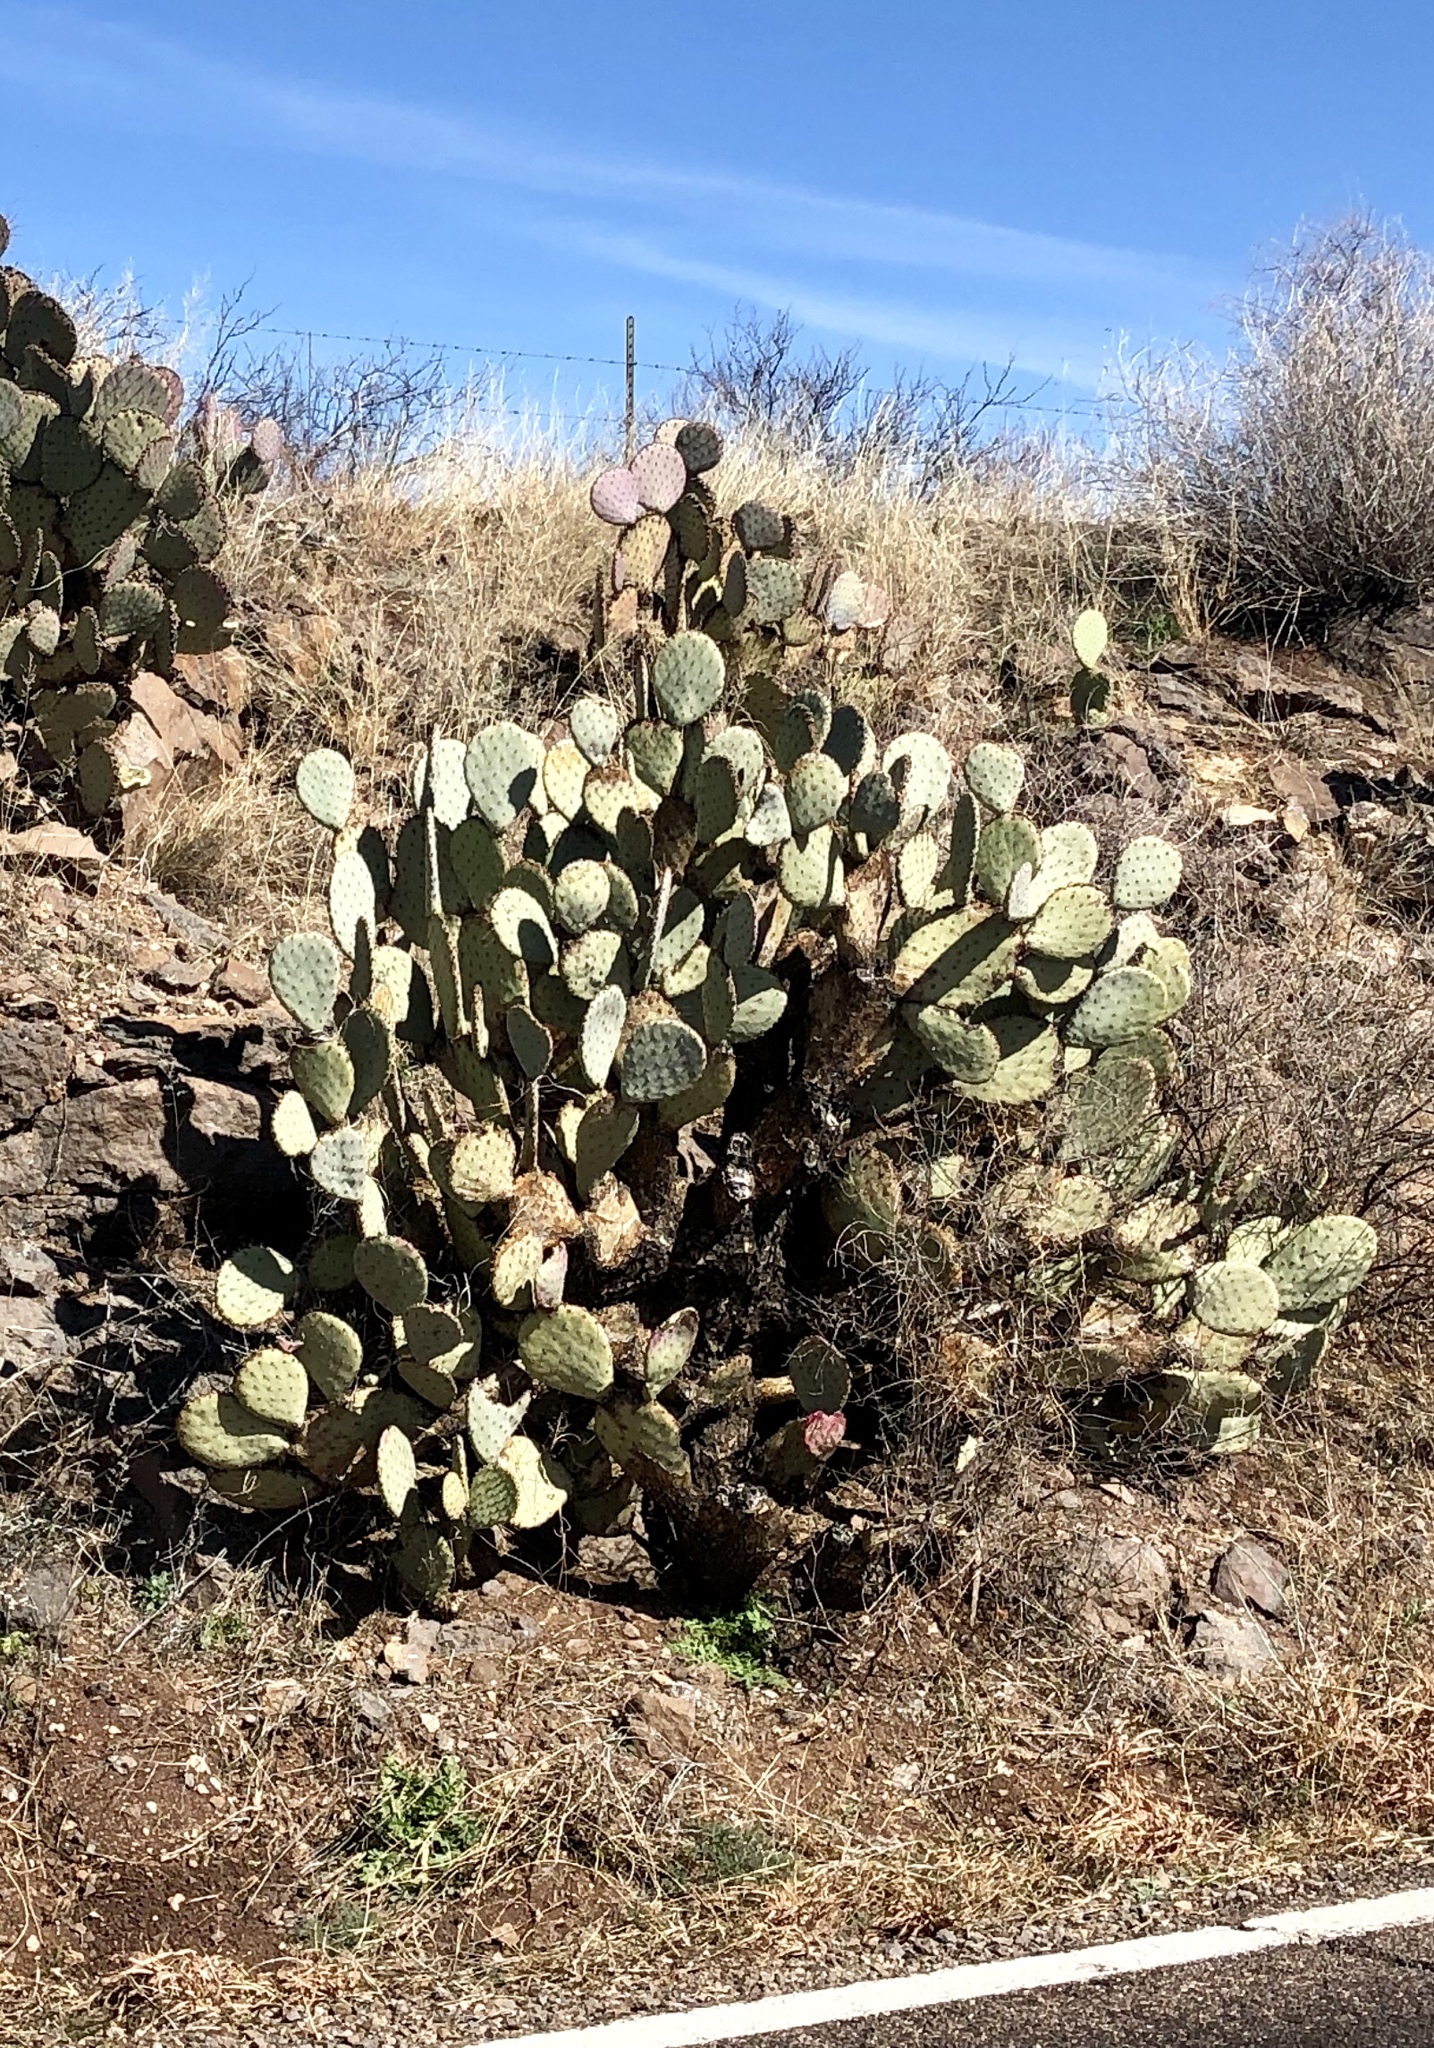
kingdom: Plantae
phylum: Tracheophyta
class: Magnoliopsida
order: Caryophyllales
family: Cactaceae
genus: Opuntia
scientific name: Opuntia gosseliniana
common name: Violet prickly-pear
